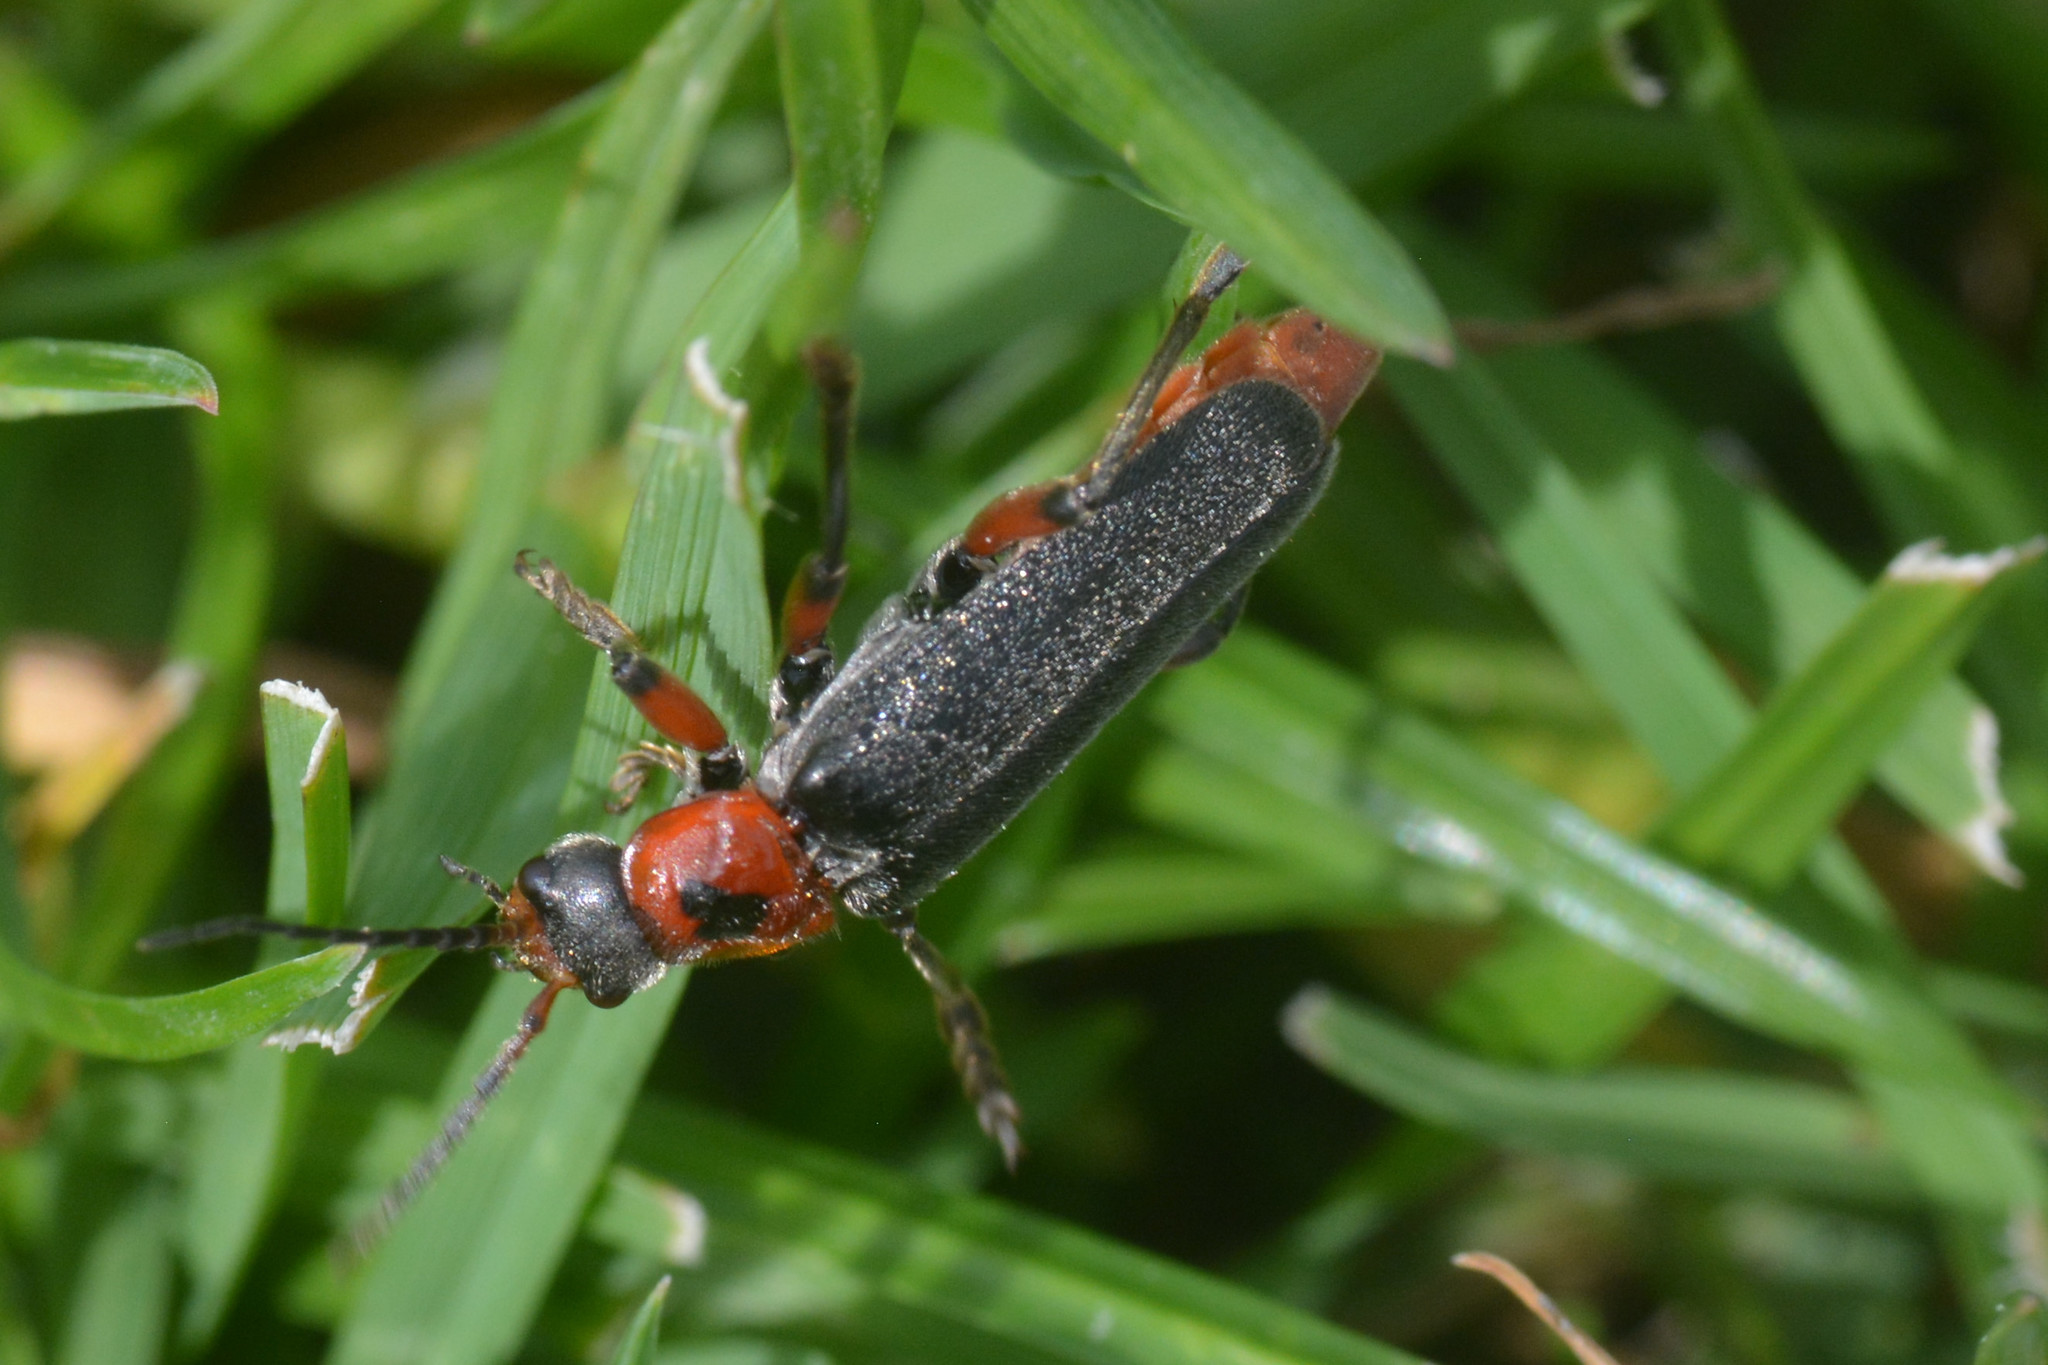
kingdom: Animalia
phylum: Arthropoda
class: Insecta
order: Coleoptera
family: Cantharidae
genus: Cantharis
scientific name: Cantharis rustica
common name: Soldier beetle
